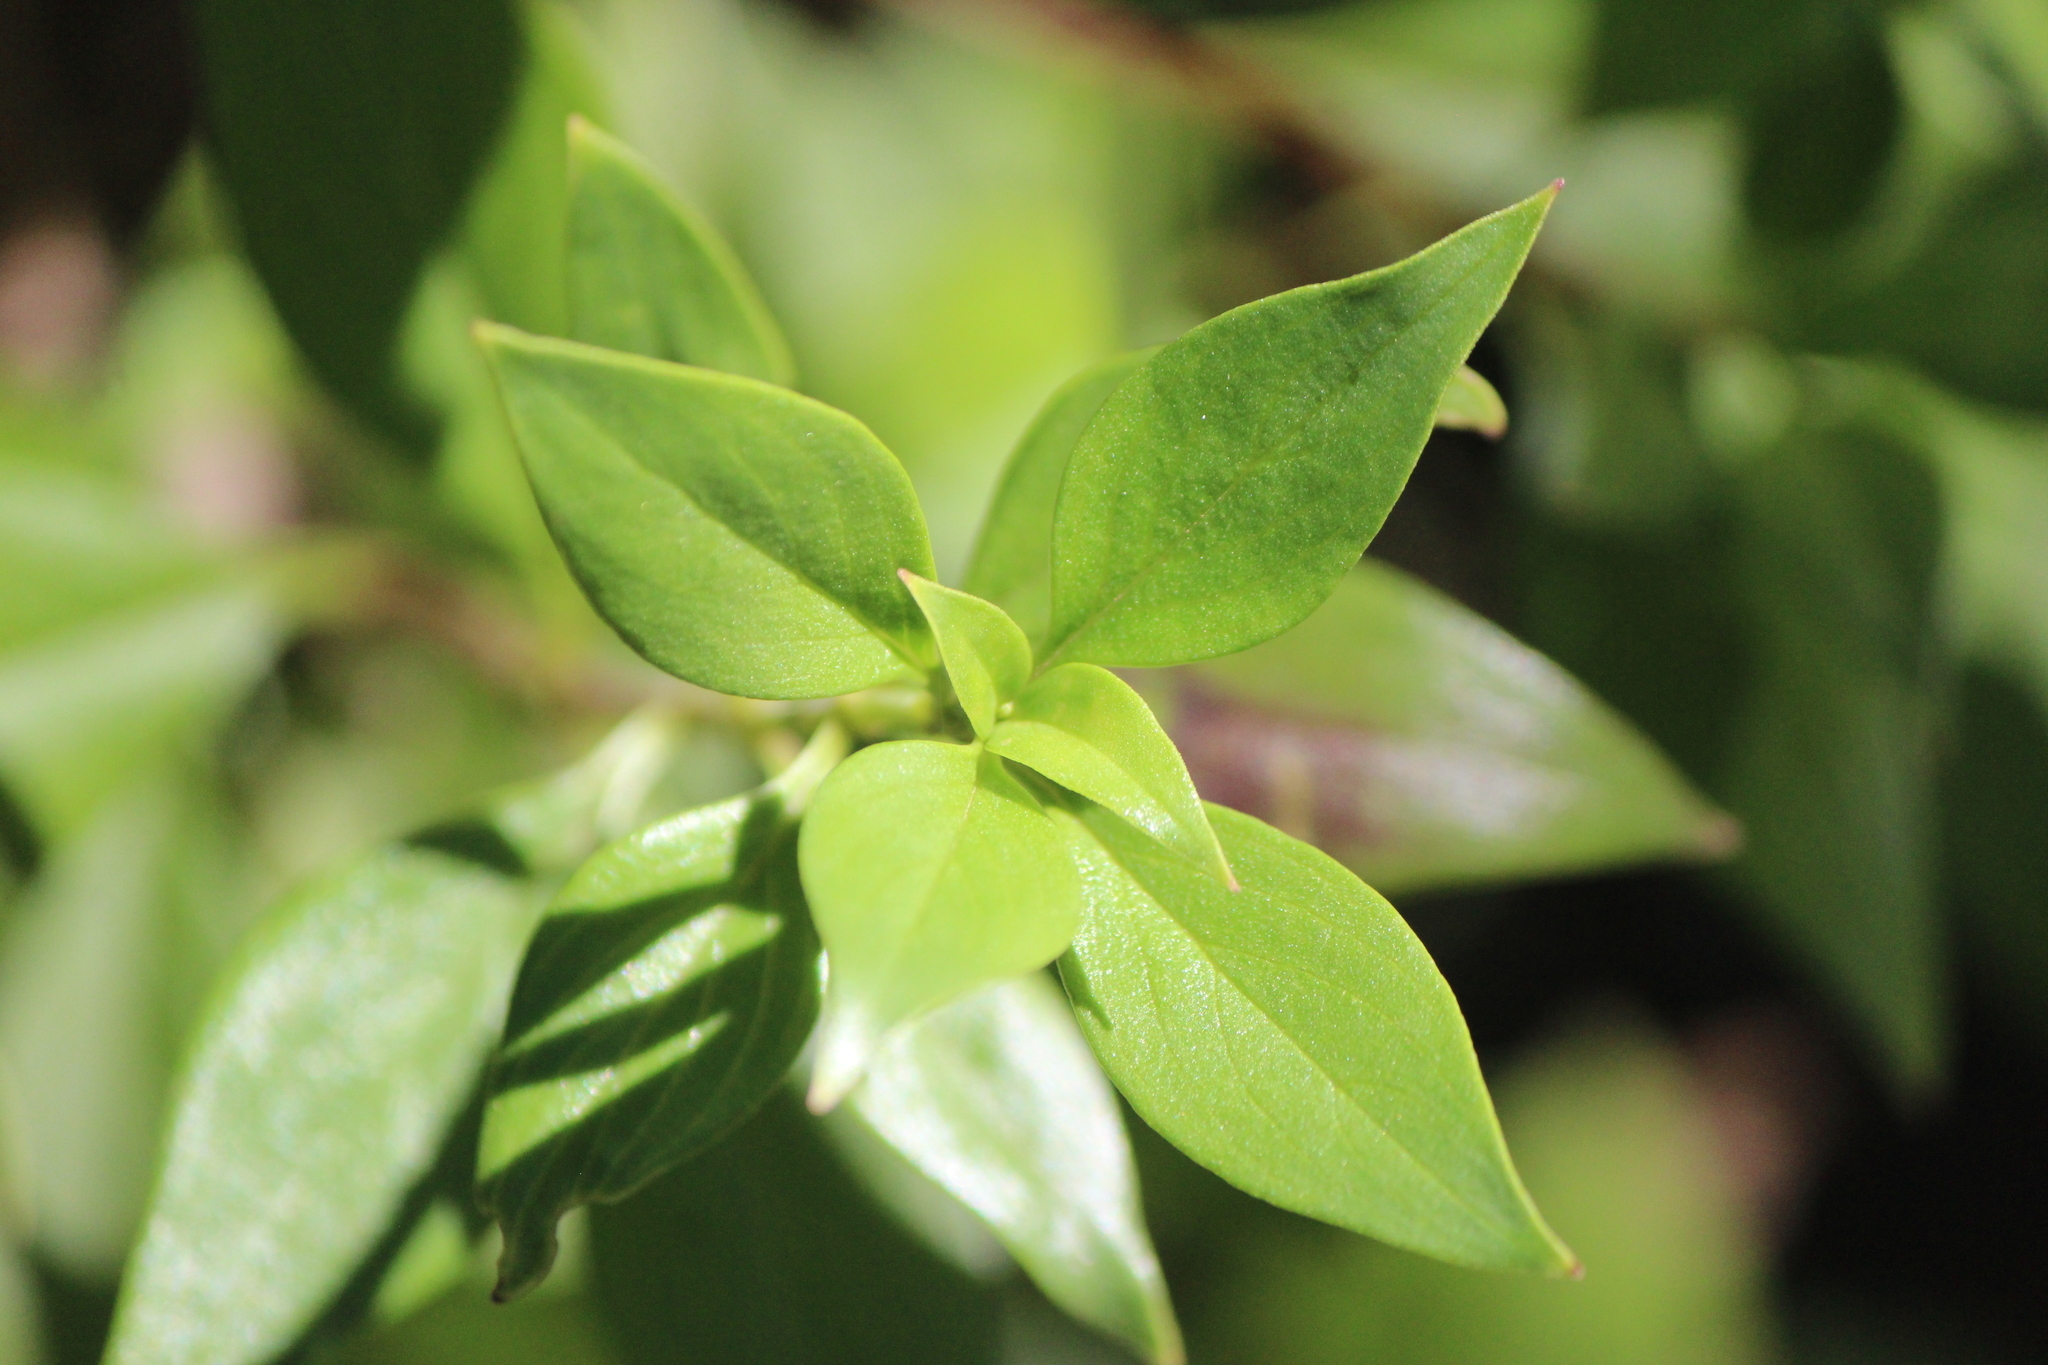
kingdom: Plantae
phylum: Tracheophyta
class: Magnoliopsida
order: Gentianales
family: Rubiaceae
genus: Bouvardia
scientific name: Bouvardia longiflora
